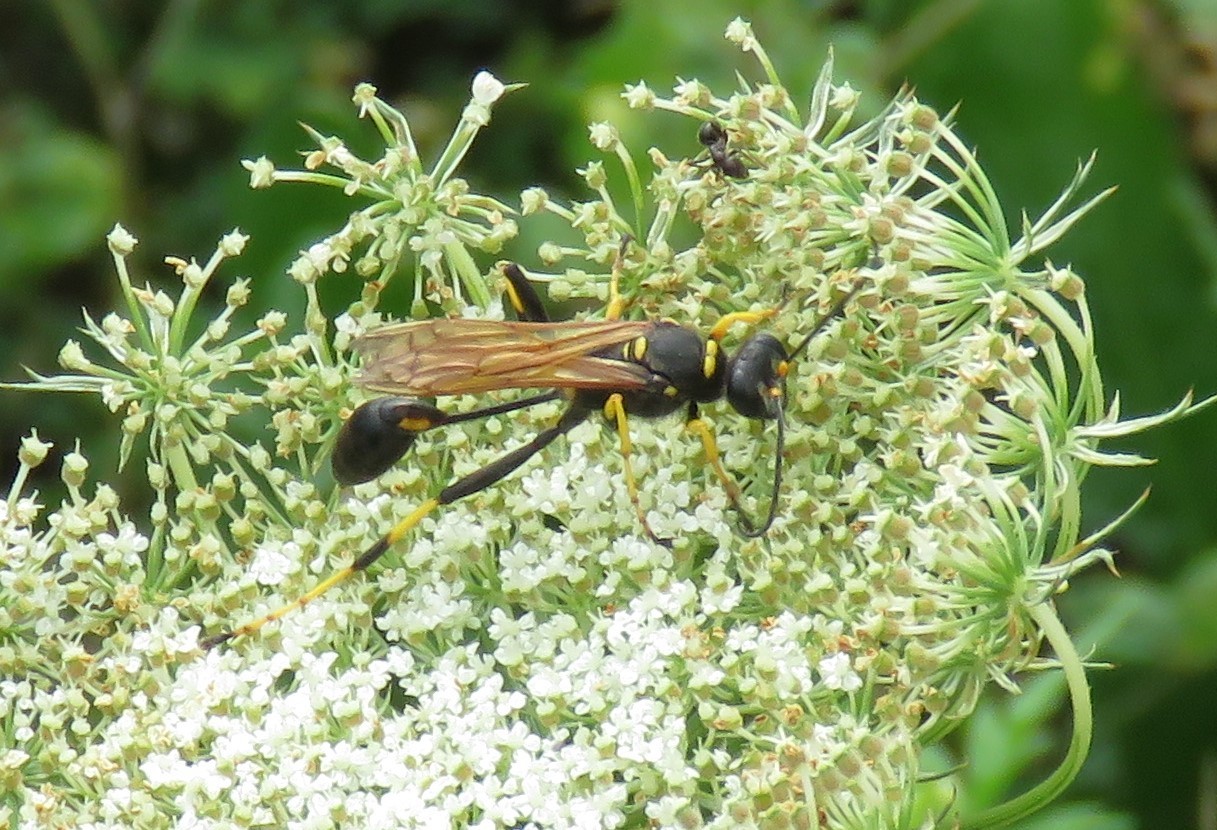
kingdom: Animalia
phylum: Arthropoda
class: Insecta
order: Hymenoptera
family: Sphecidae
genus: Sceliphron
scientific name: Sceliphron caementarium
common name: Mud dauber
